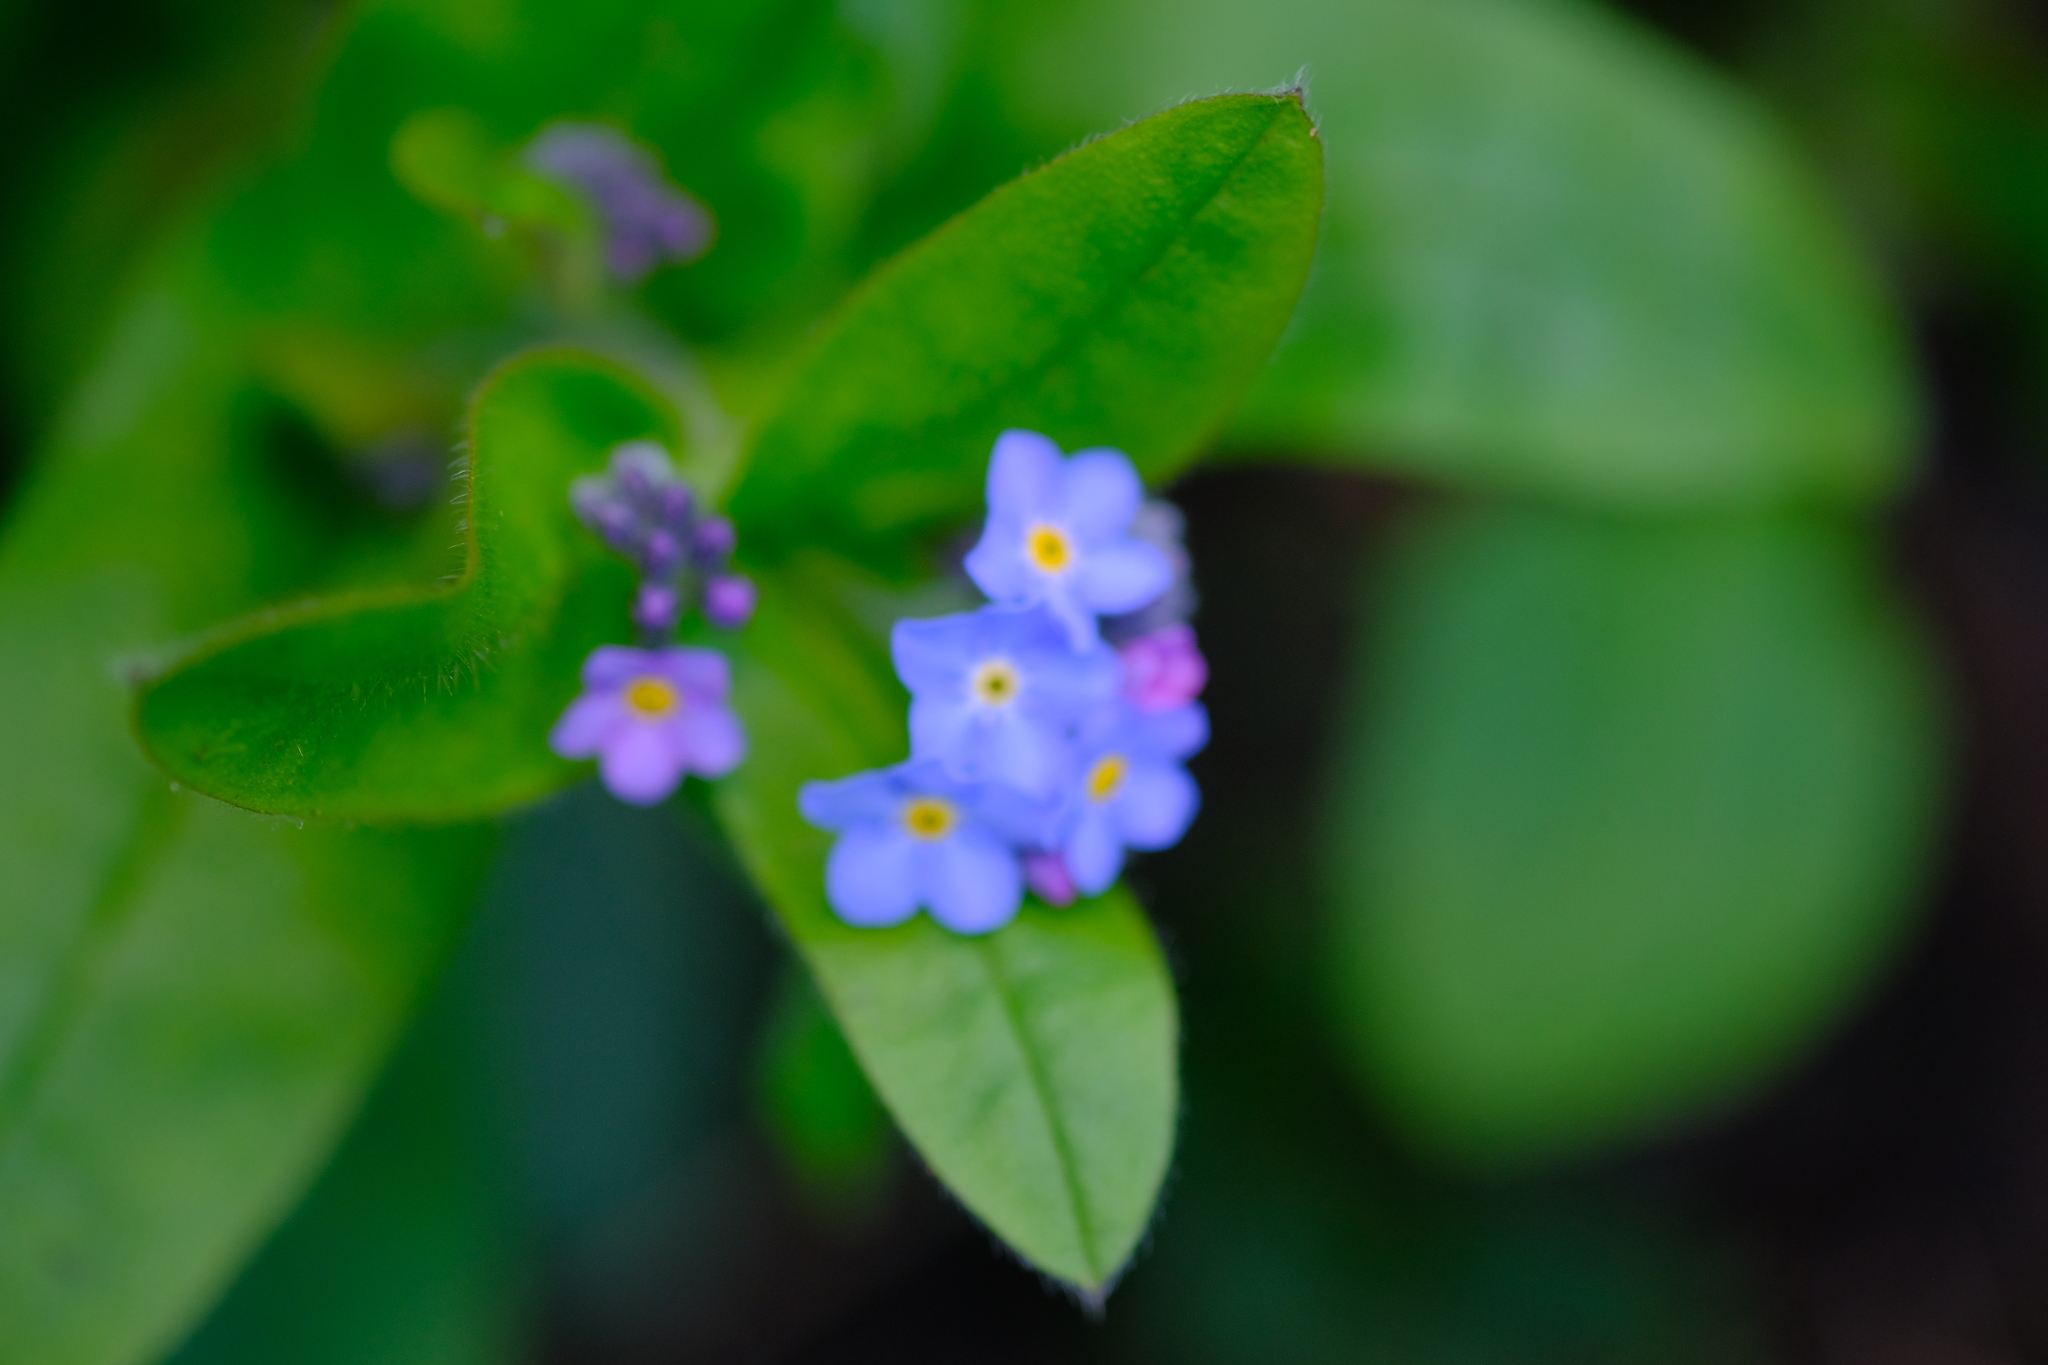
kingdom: Plantae
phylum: Tracheophyta
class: Magnoliopsida
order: Boraginales
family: Boraginaceae
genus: Myosotis
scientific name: Myosotis sylvatica
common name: Wood forget-me-not
